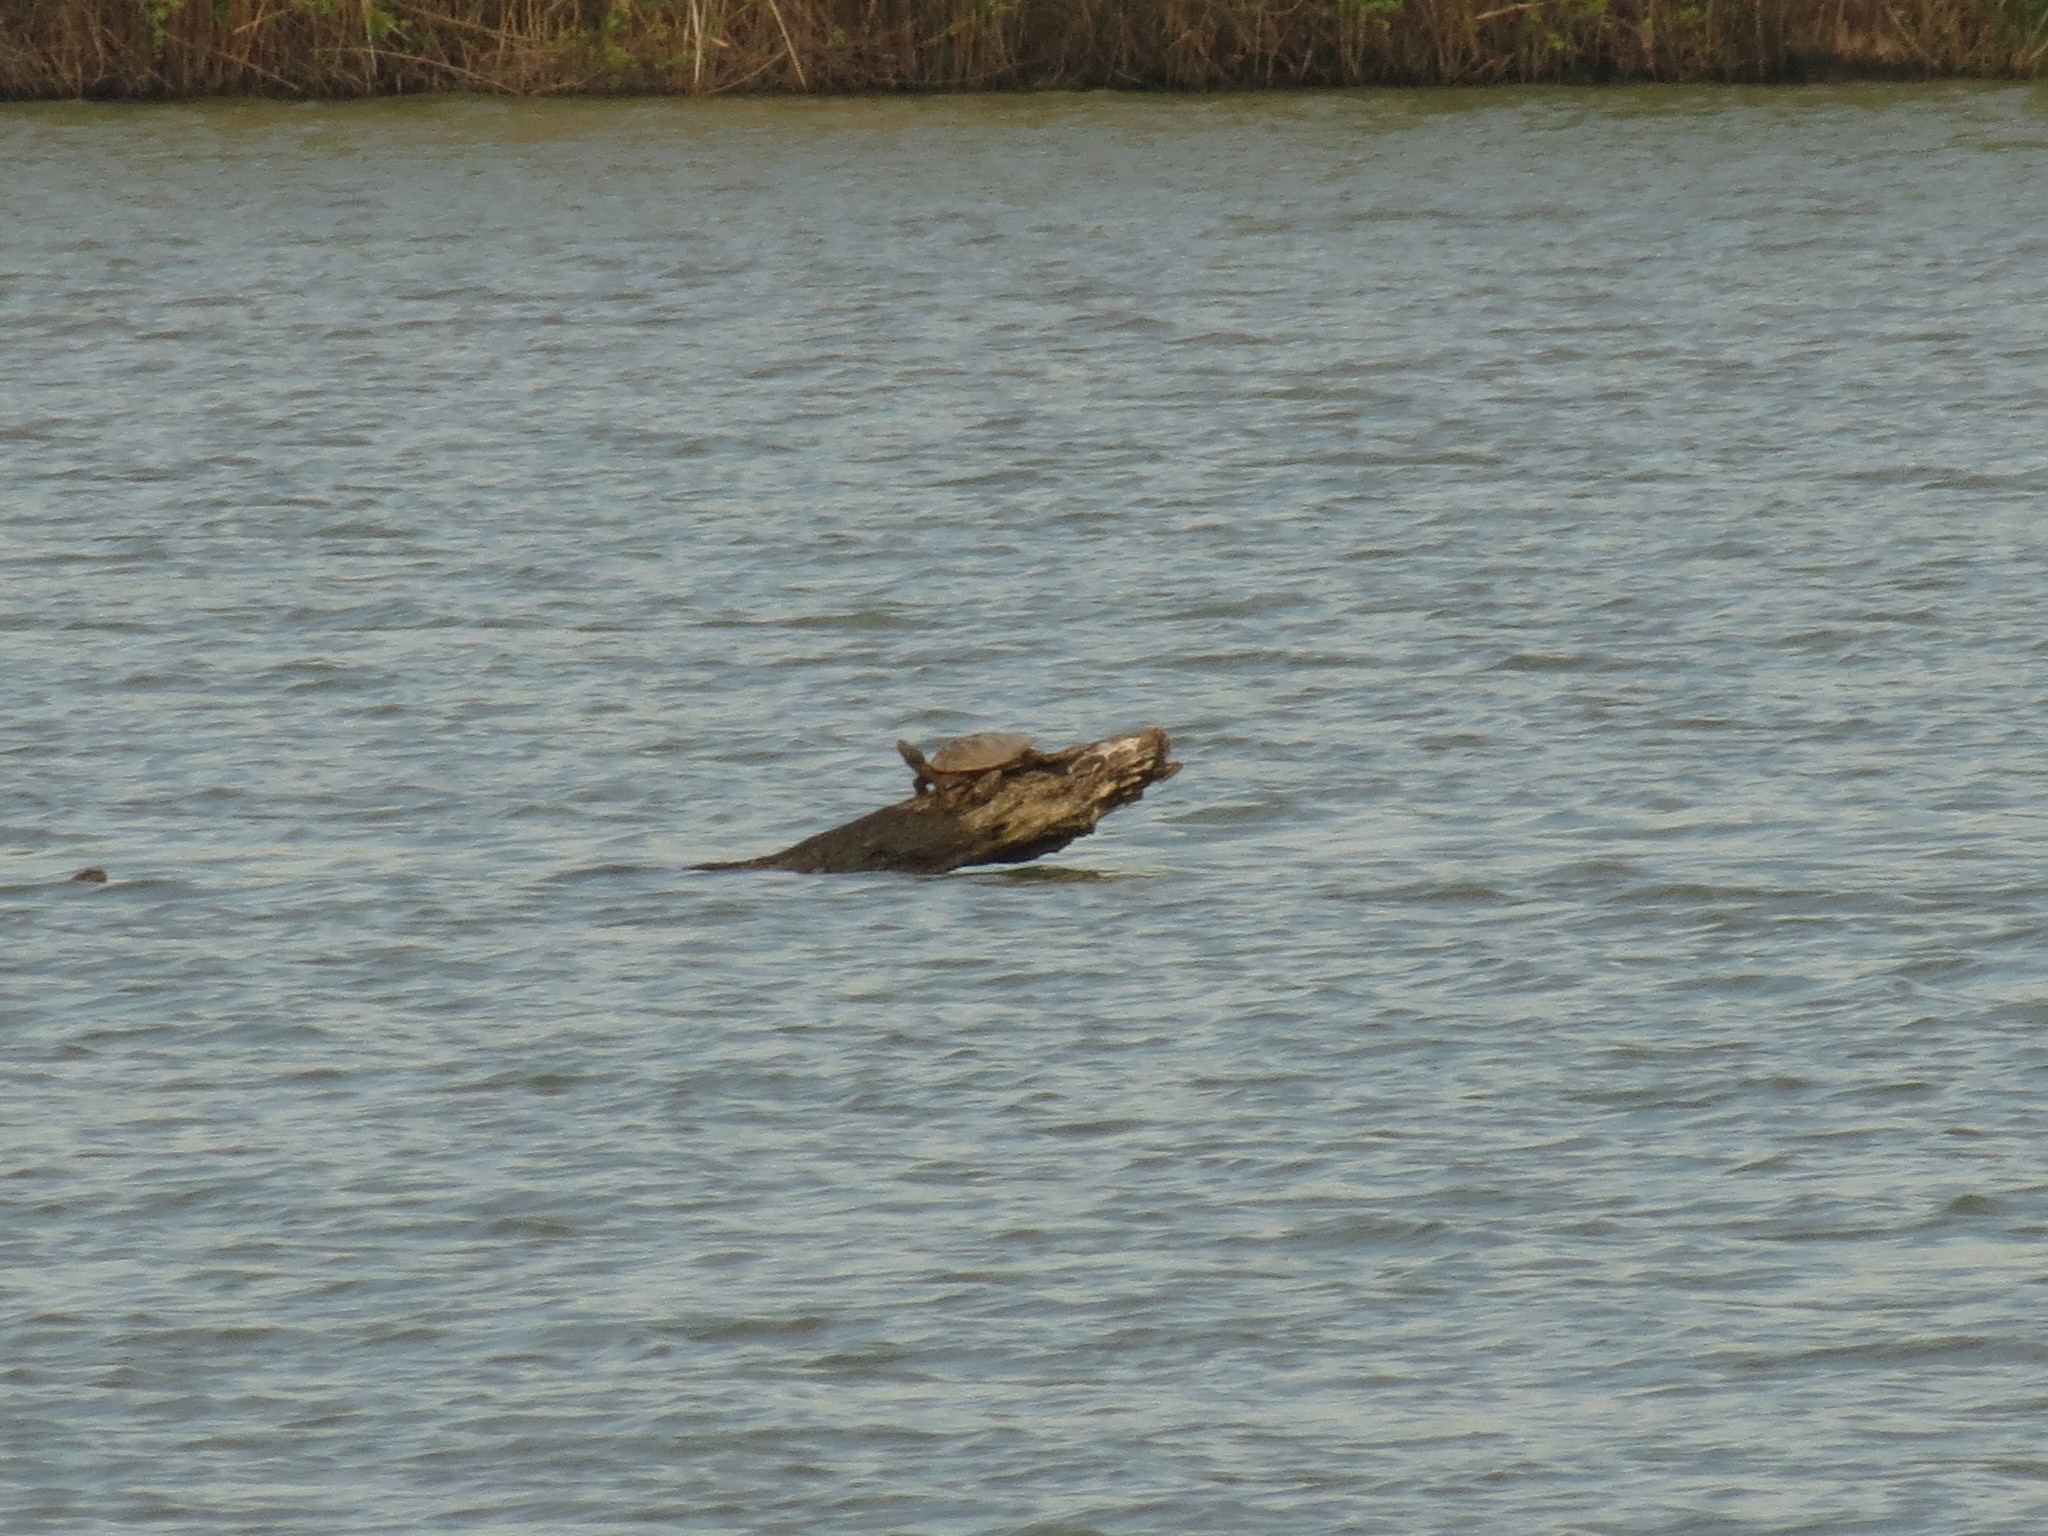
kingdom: Animalia
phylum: Chordata
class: Testudines
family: Emydidae
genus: Graptemys
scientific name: Graptemys geographica
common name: Common map turtle
